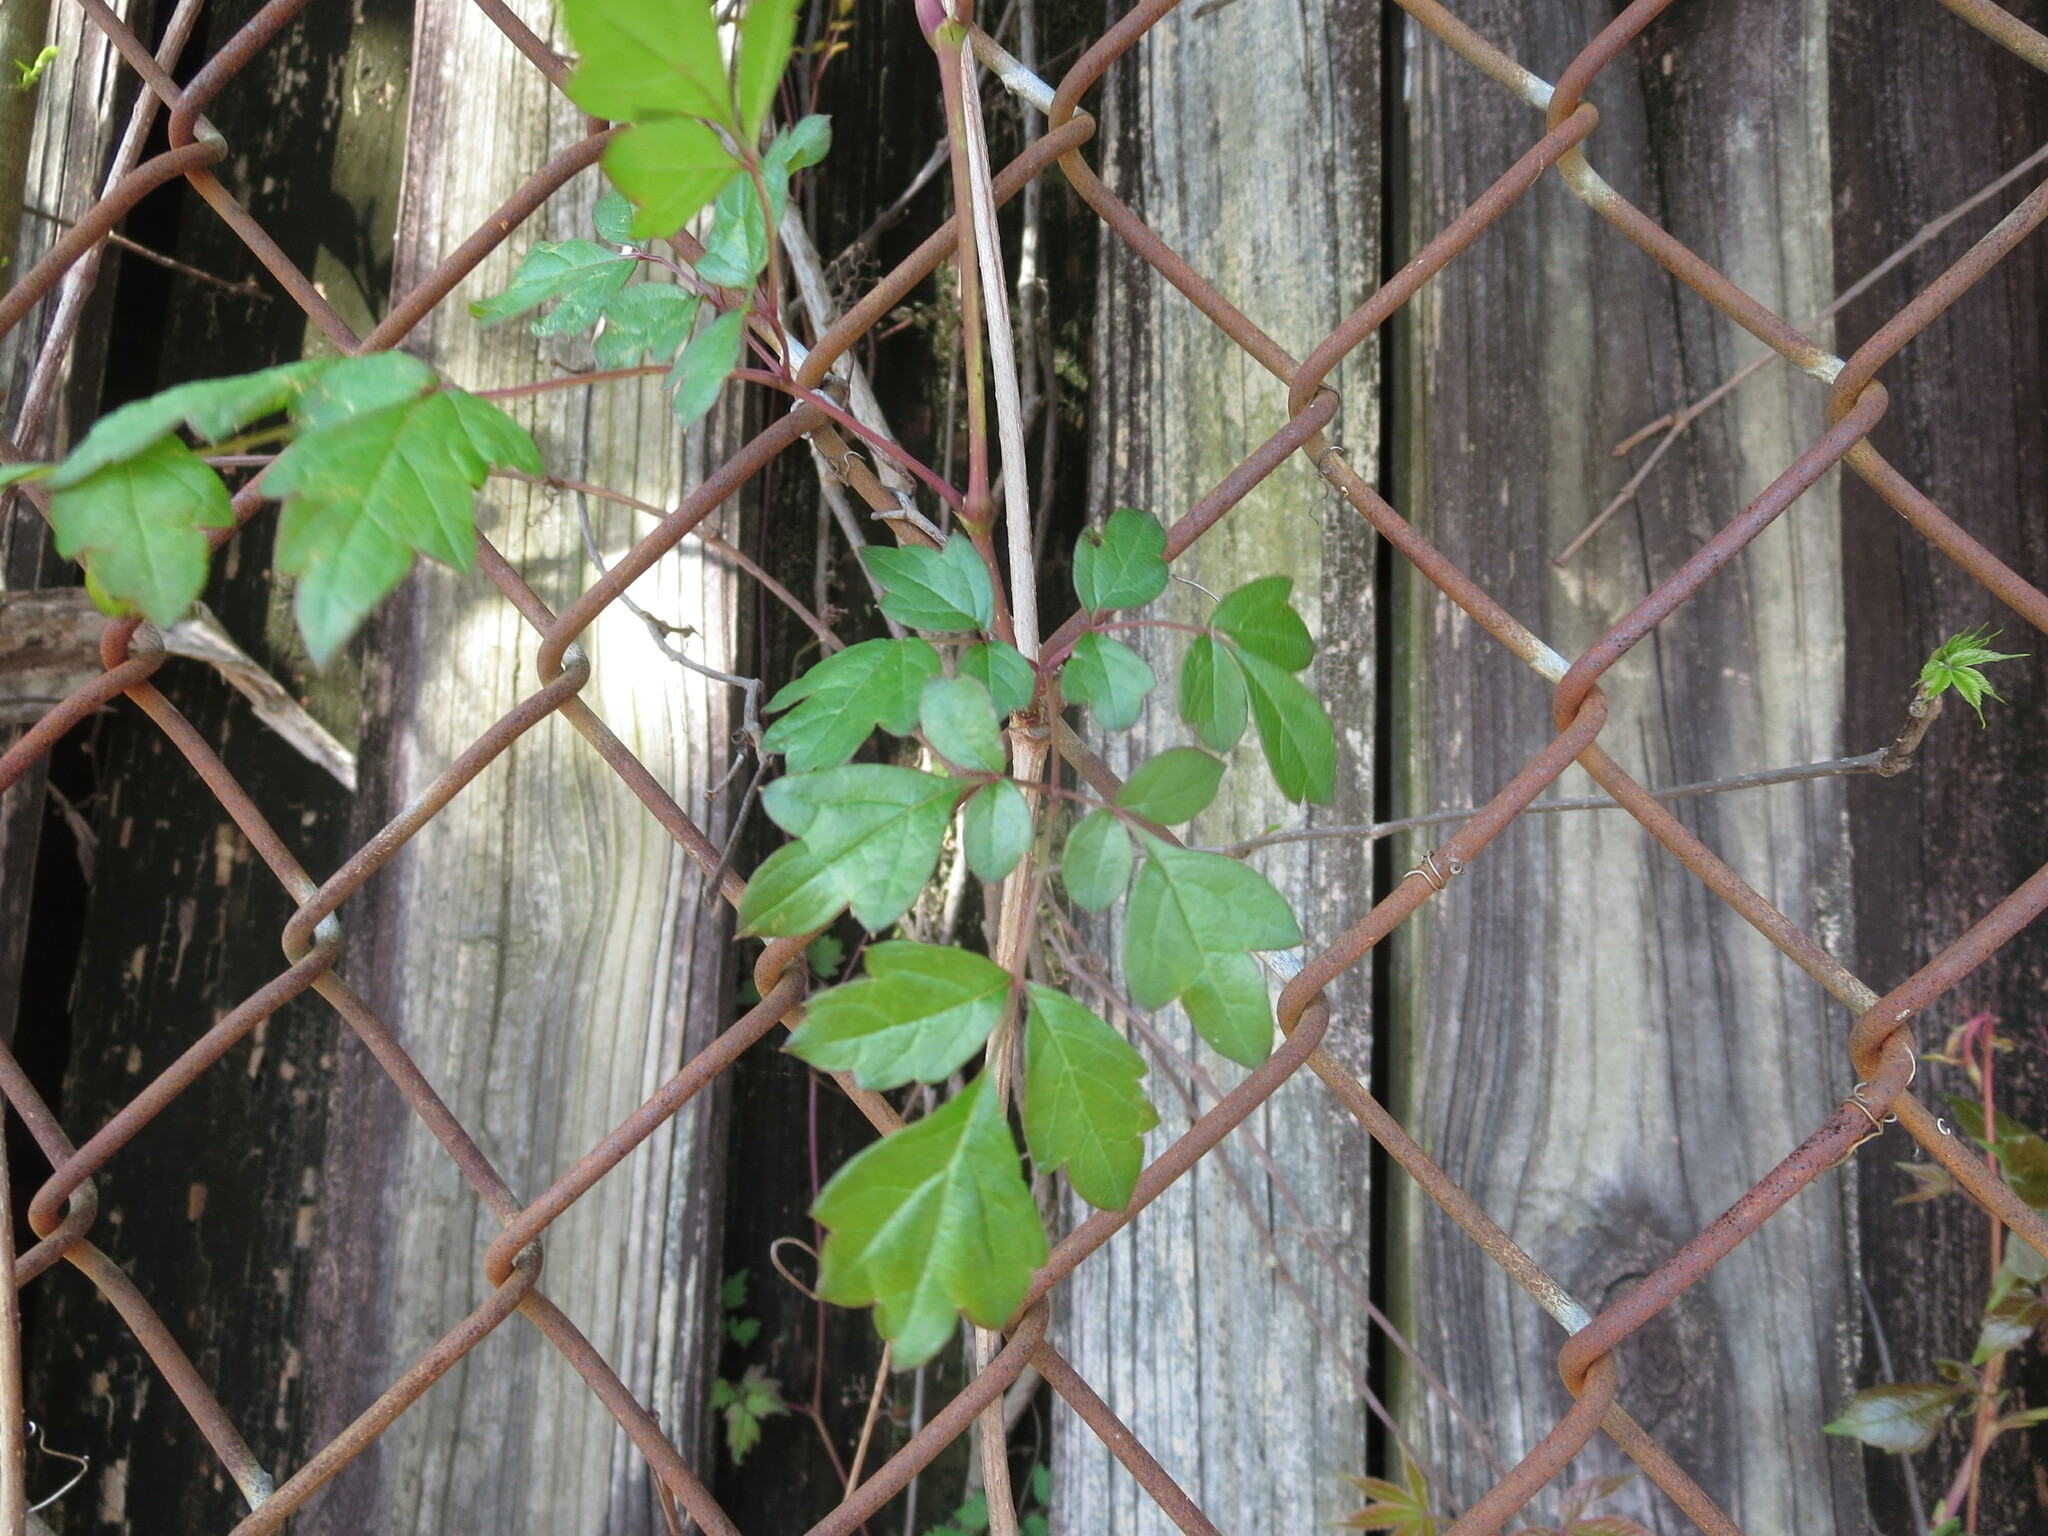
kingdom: Plantae
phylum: Tracheophyta
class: Magnoliopsida
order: Vitales
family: Vitaceae
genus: Nekemias
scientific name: Nekemias arborea
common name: Peppervine
